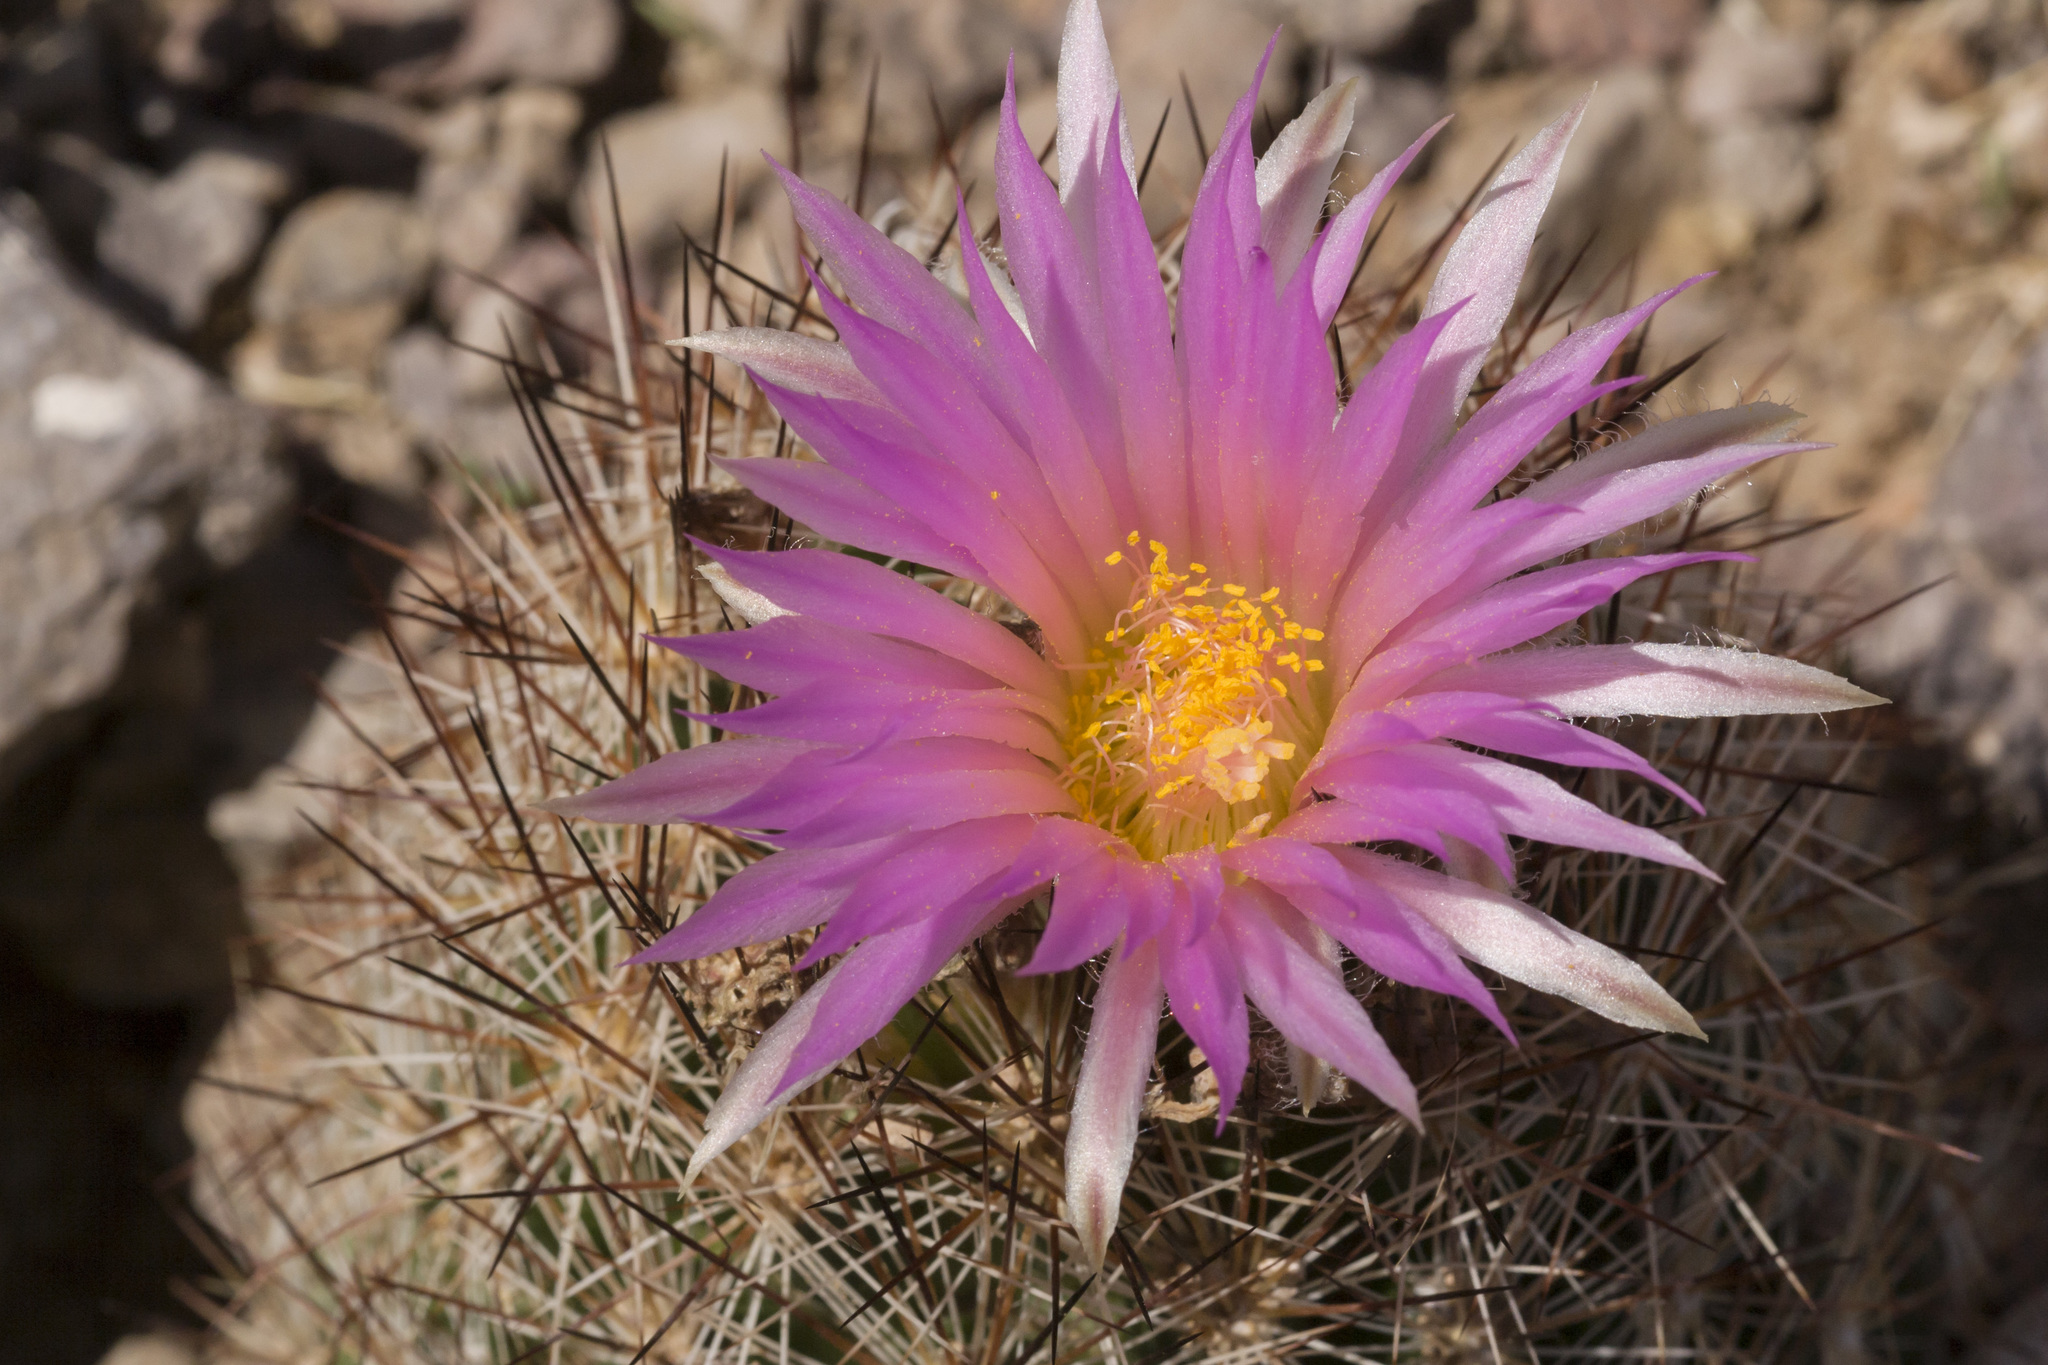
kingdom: Plantae
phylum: Tracheophyta
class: Magnoliopsida
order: Caryophyllales
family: Cactaceae
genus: Pelecyphora
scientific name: Pelecyphora vivipara
